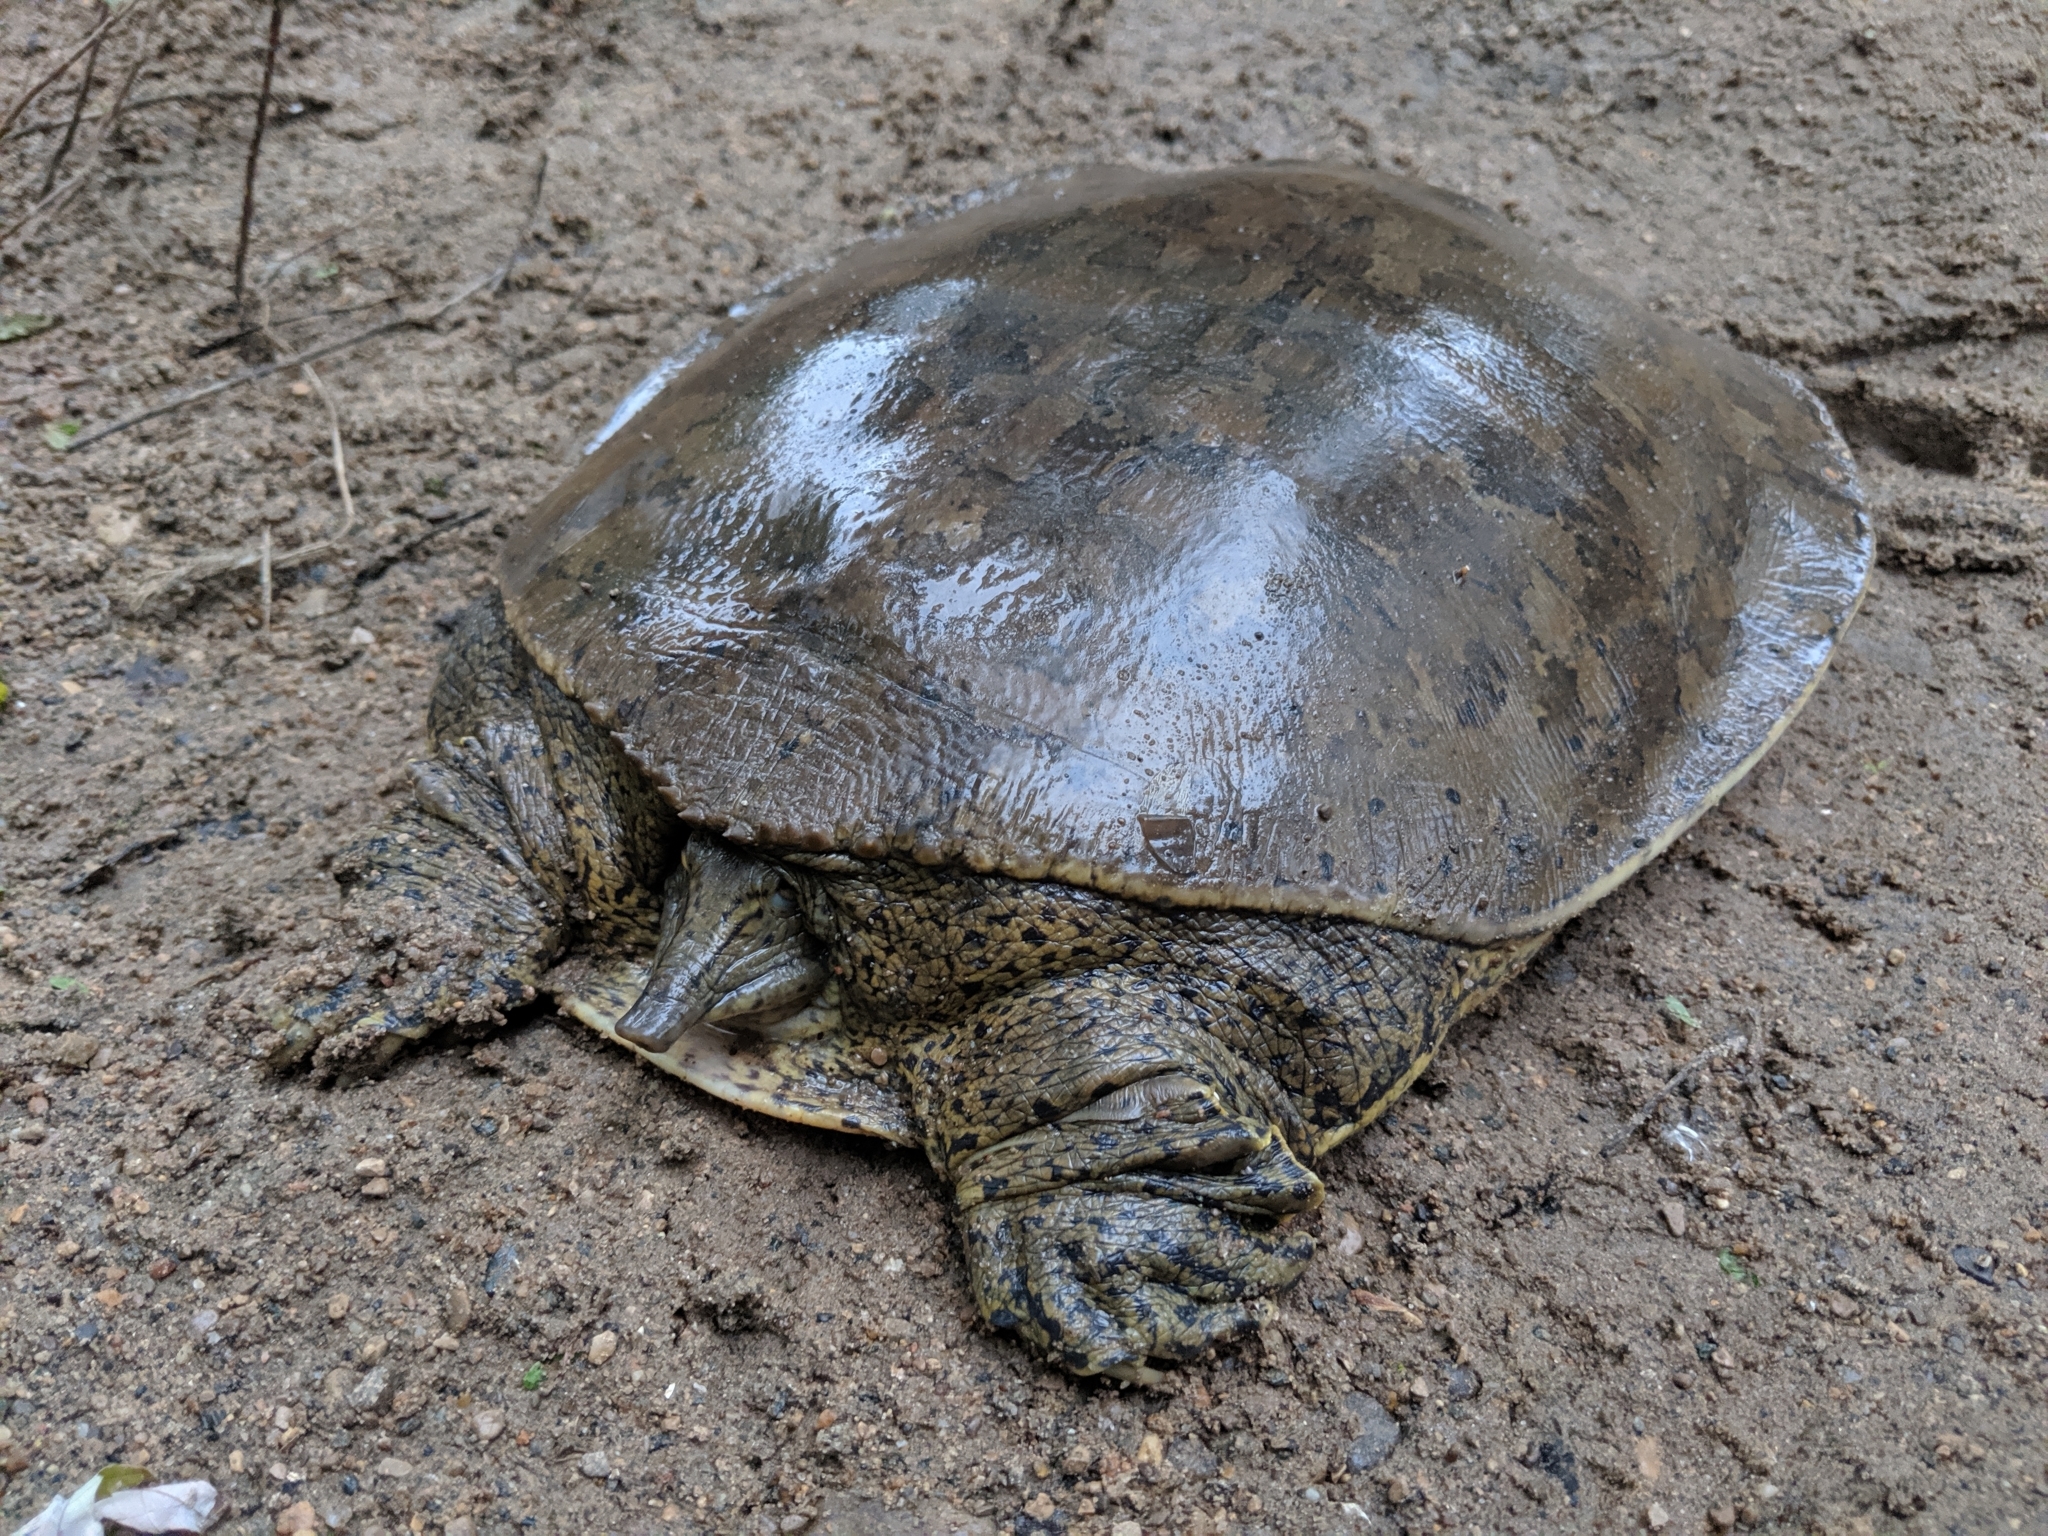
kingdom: Animalia
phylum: Chordata
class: Testudines
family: Trionychidae
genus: Apalone
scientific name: Apalone spinifera
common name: Spiny softshell turtle
